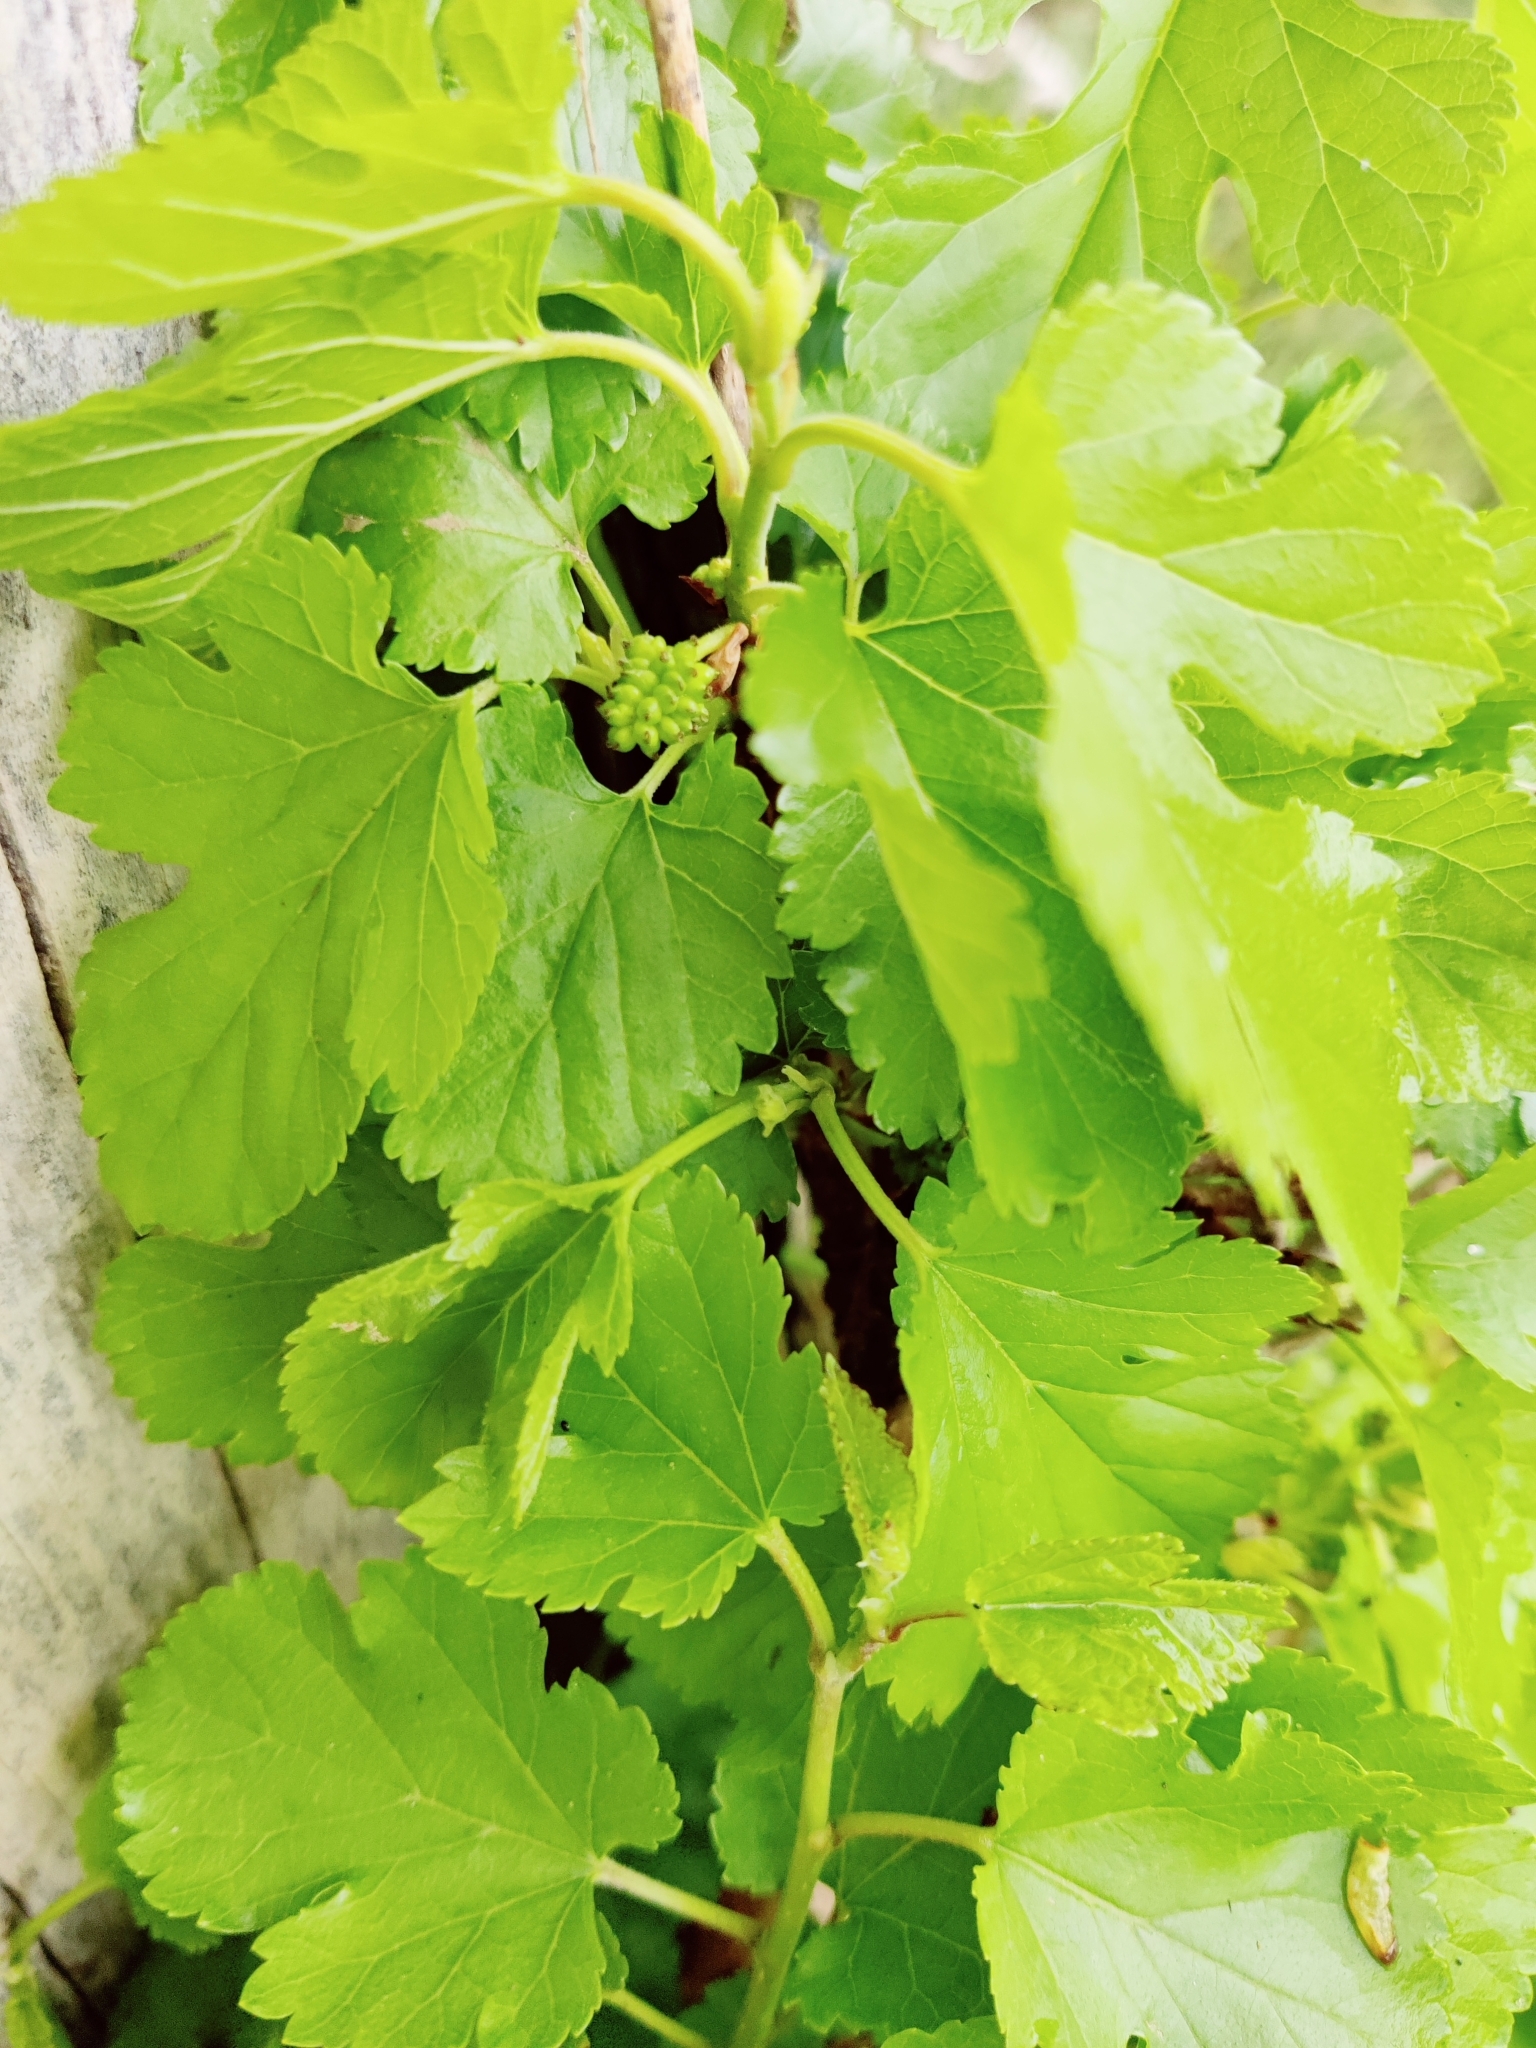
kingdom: Plantae
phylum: Tracheophyta
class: Magnoliopsida
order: Rosales
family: Moraceae
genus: Morus
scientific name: Morus alba
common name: White mulberry
